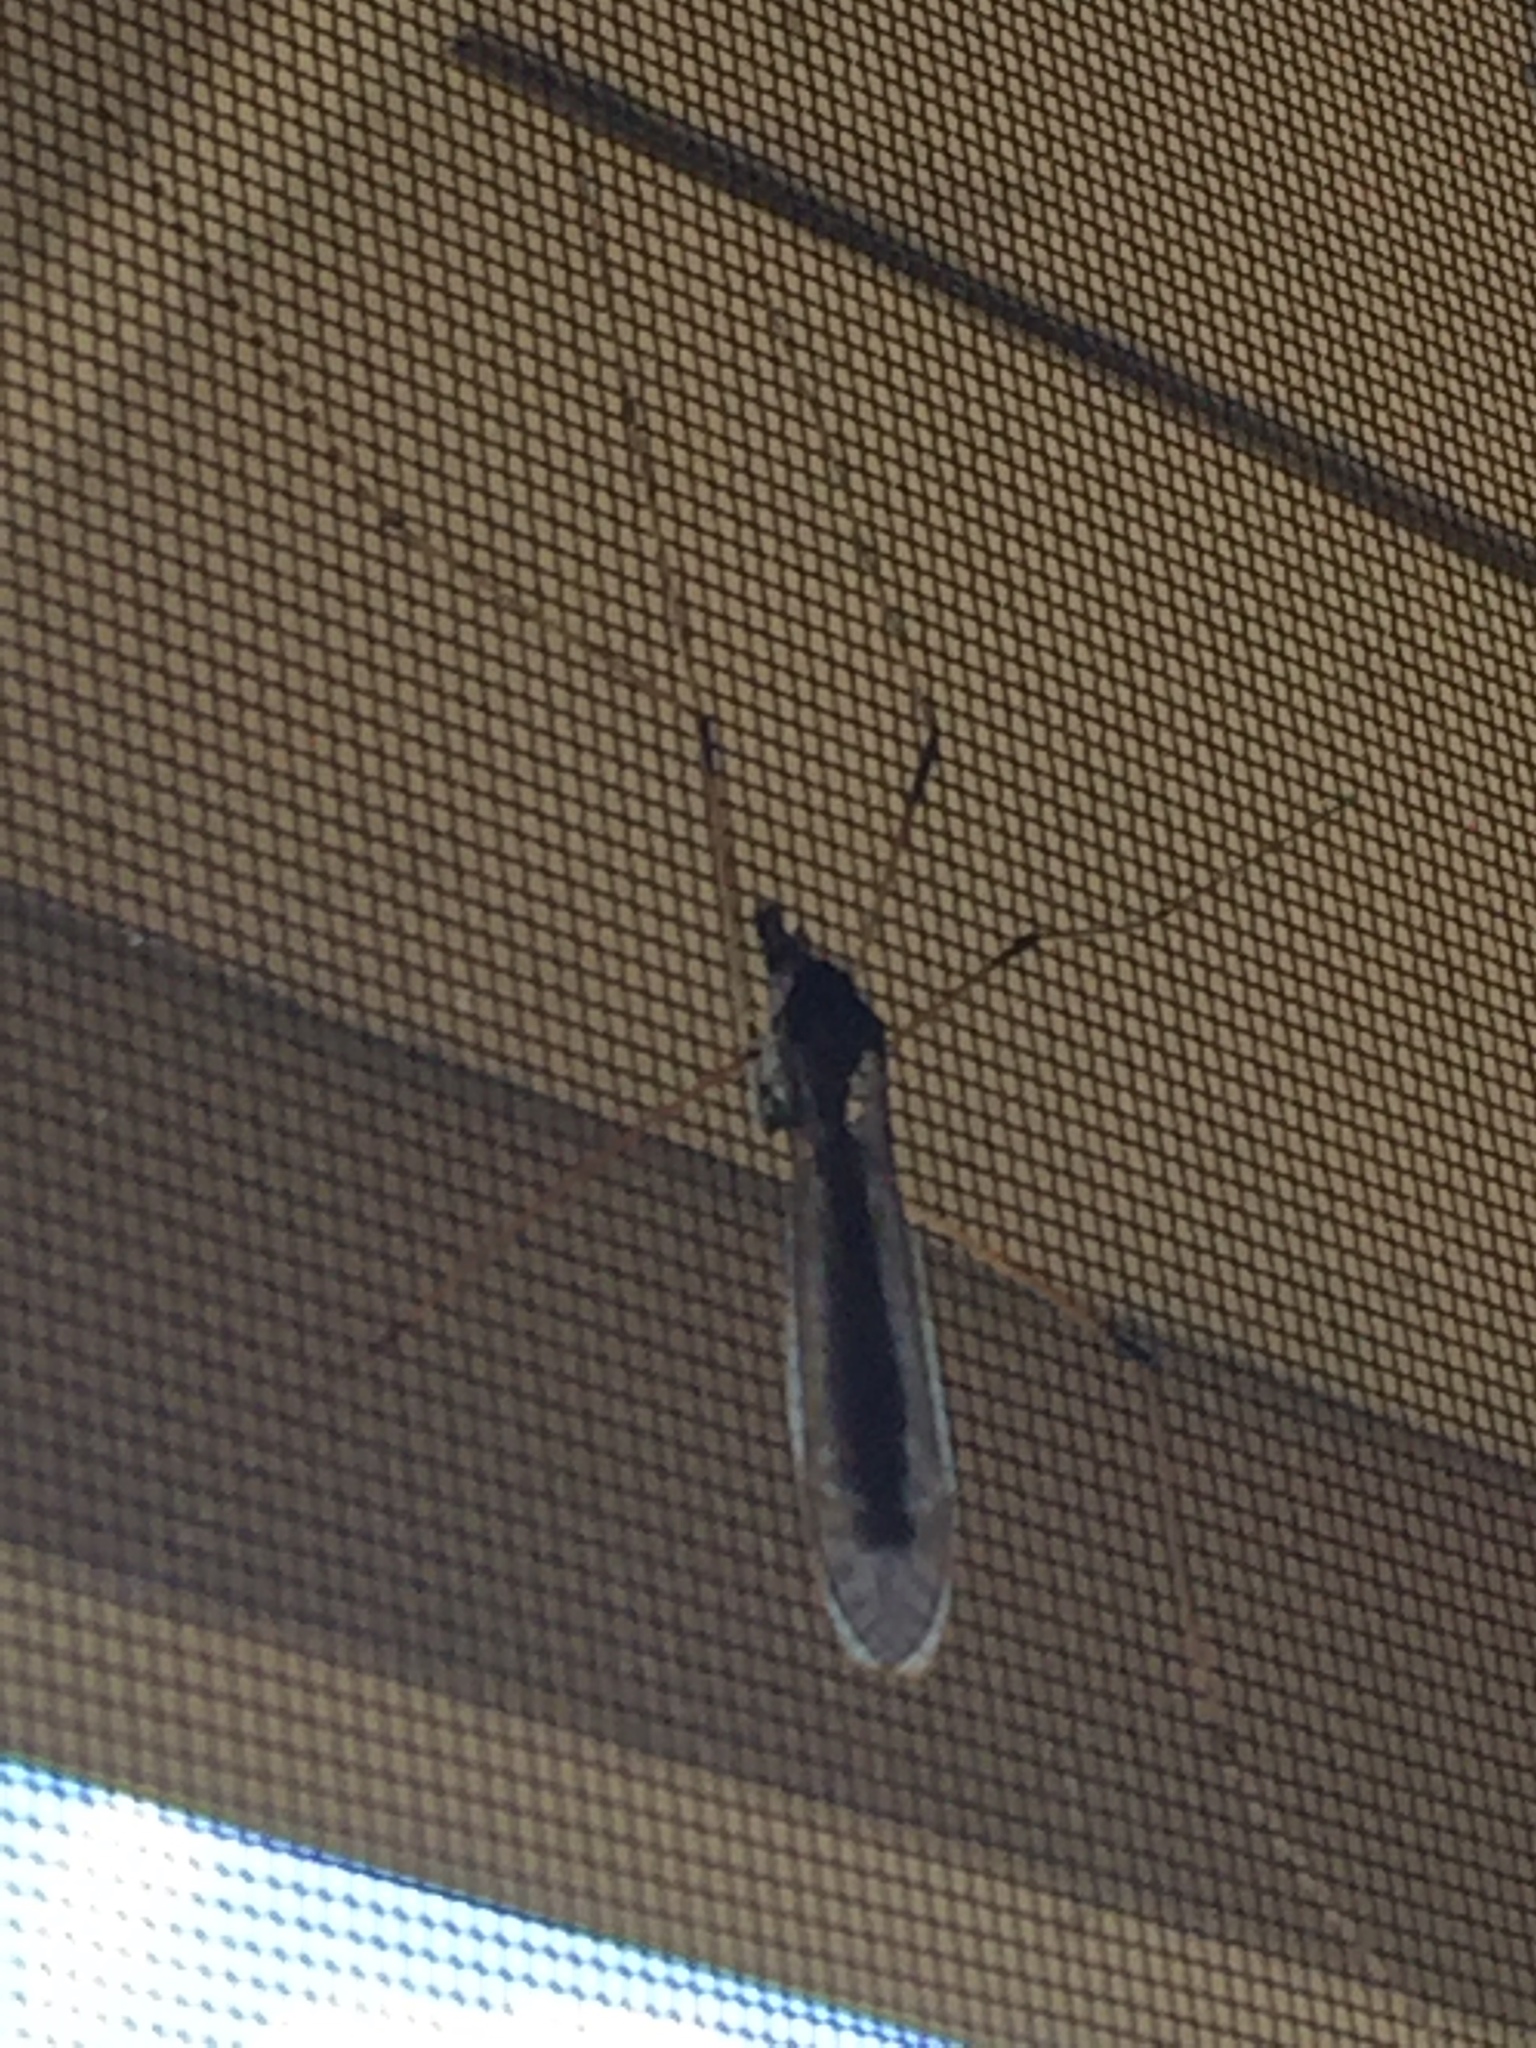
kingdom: Animalia
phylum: Arthropoda
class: Insecta
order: Diptera
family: Tipulidae
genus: Holorusia
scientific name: Holorusia hespera
